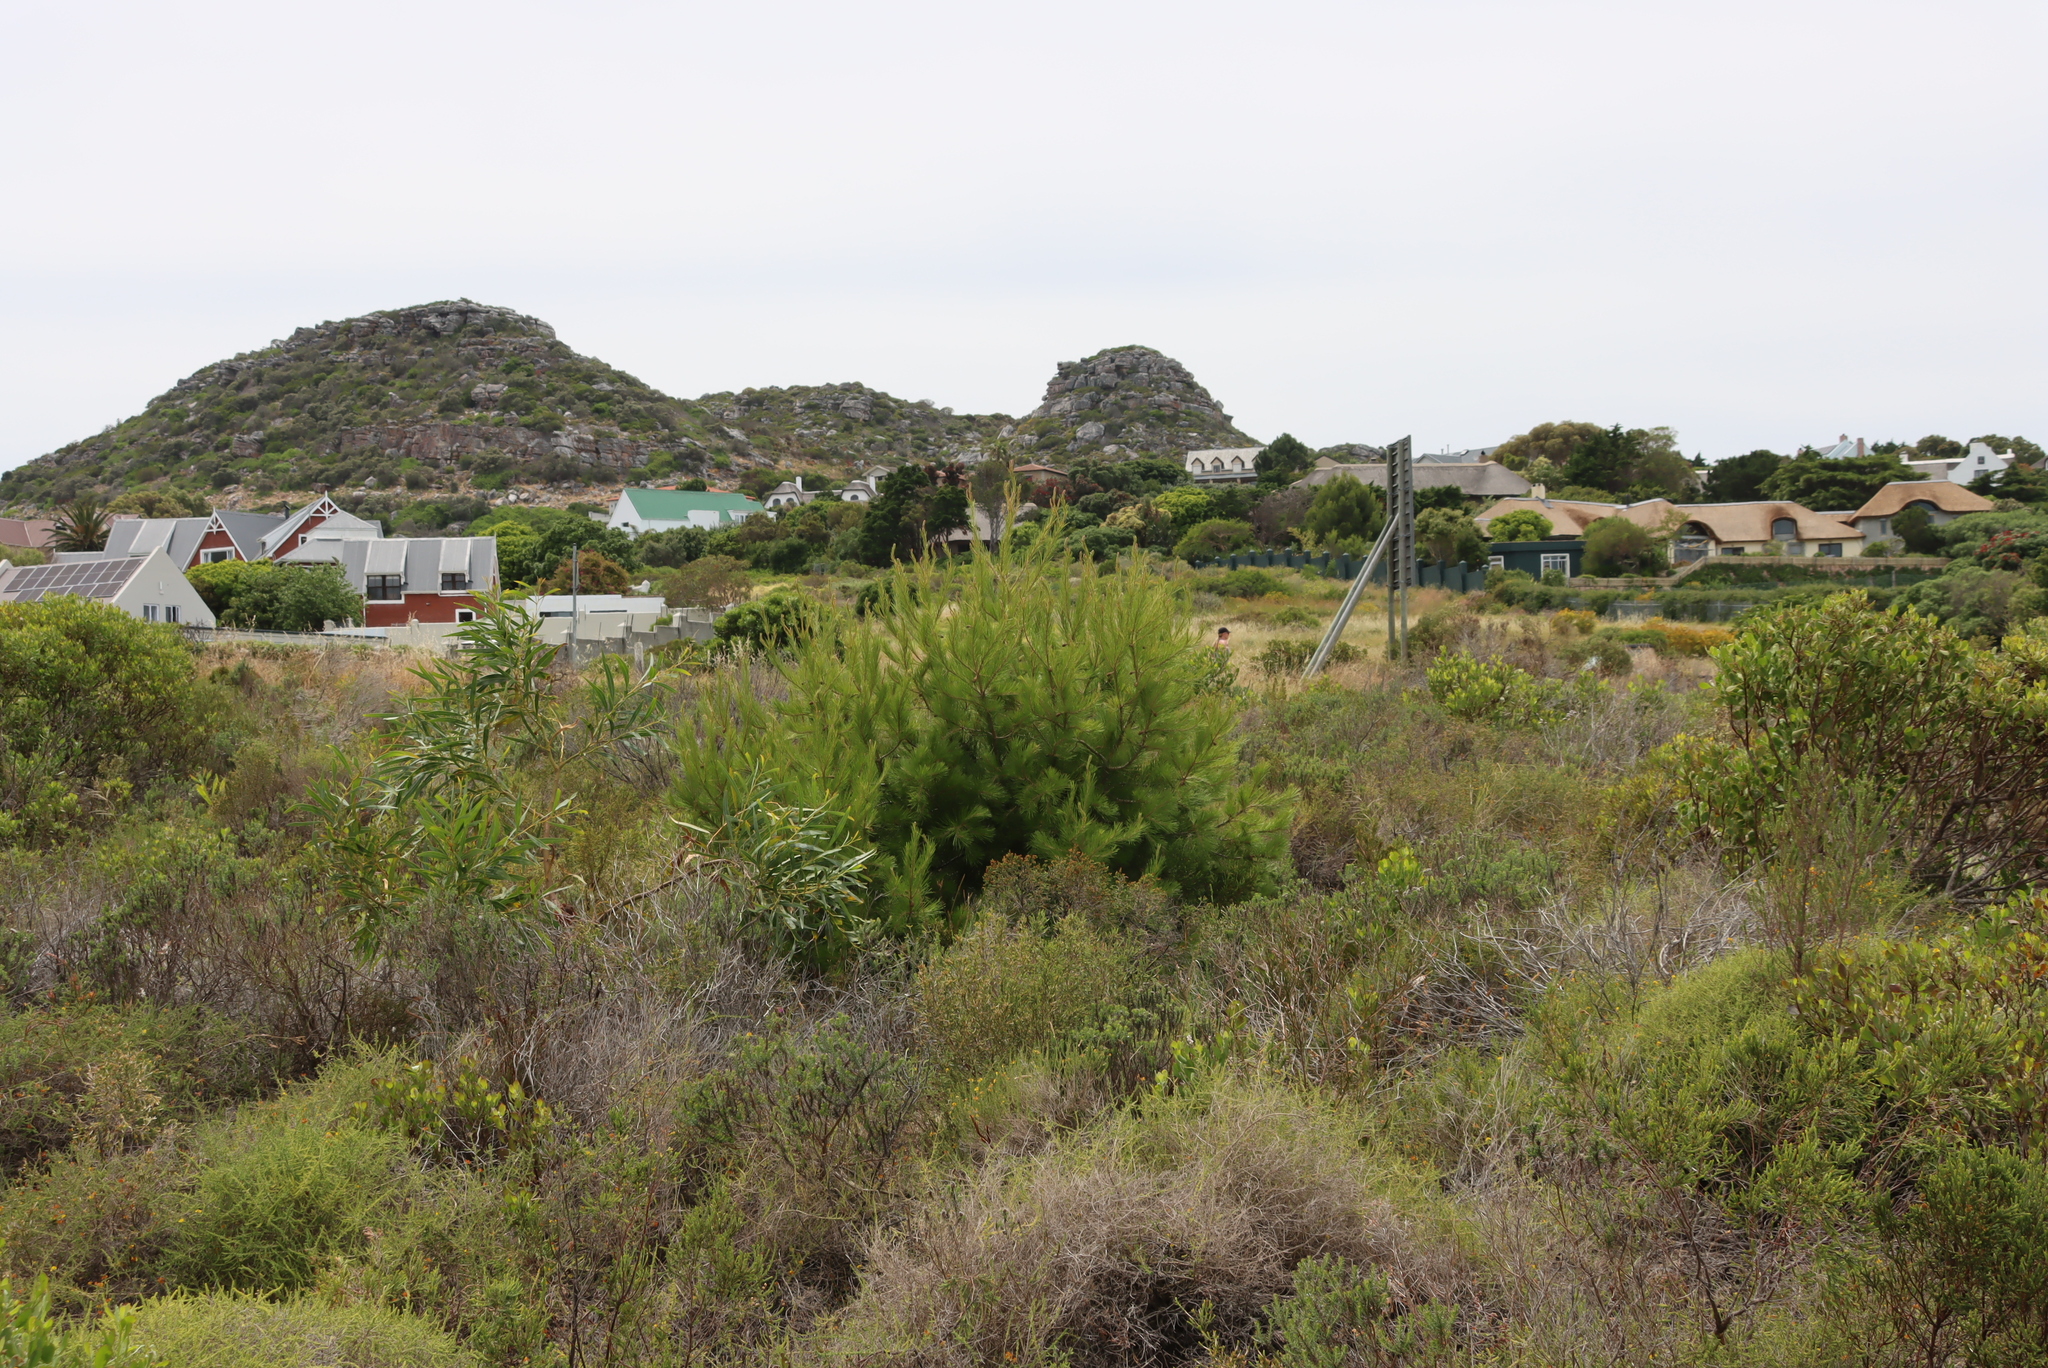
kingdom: Plantae
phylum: Tracheophyta
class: Pinopsida
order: Pinales
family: Pinaceae
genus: Pinus
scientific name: Pinus halepensis
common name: Aleppo pine
